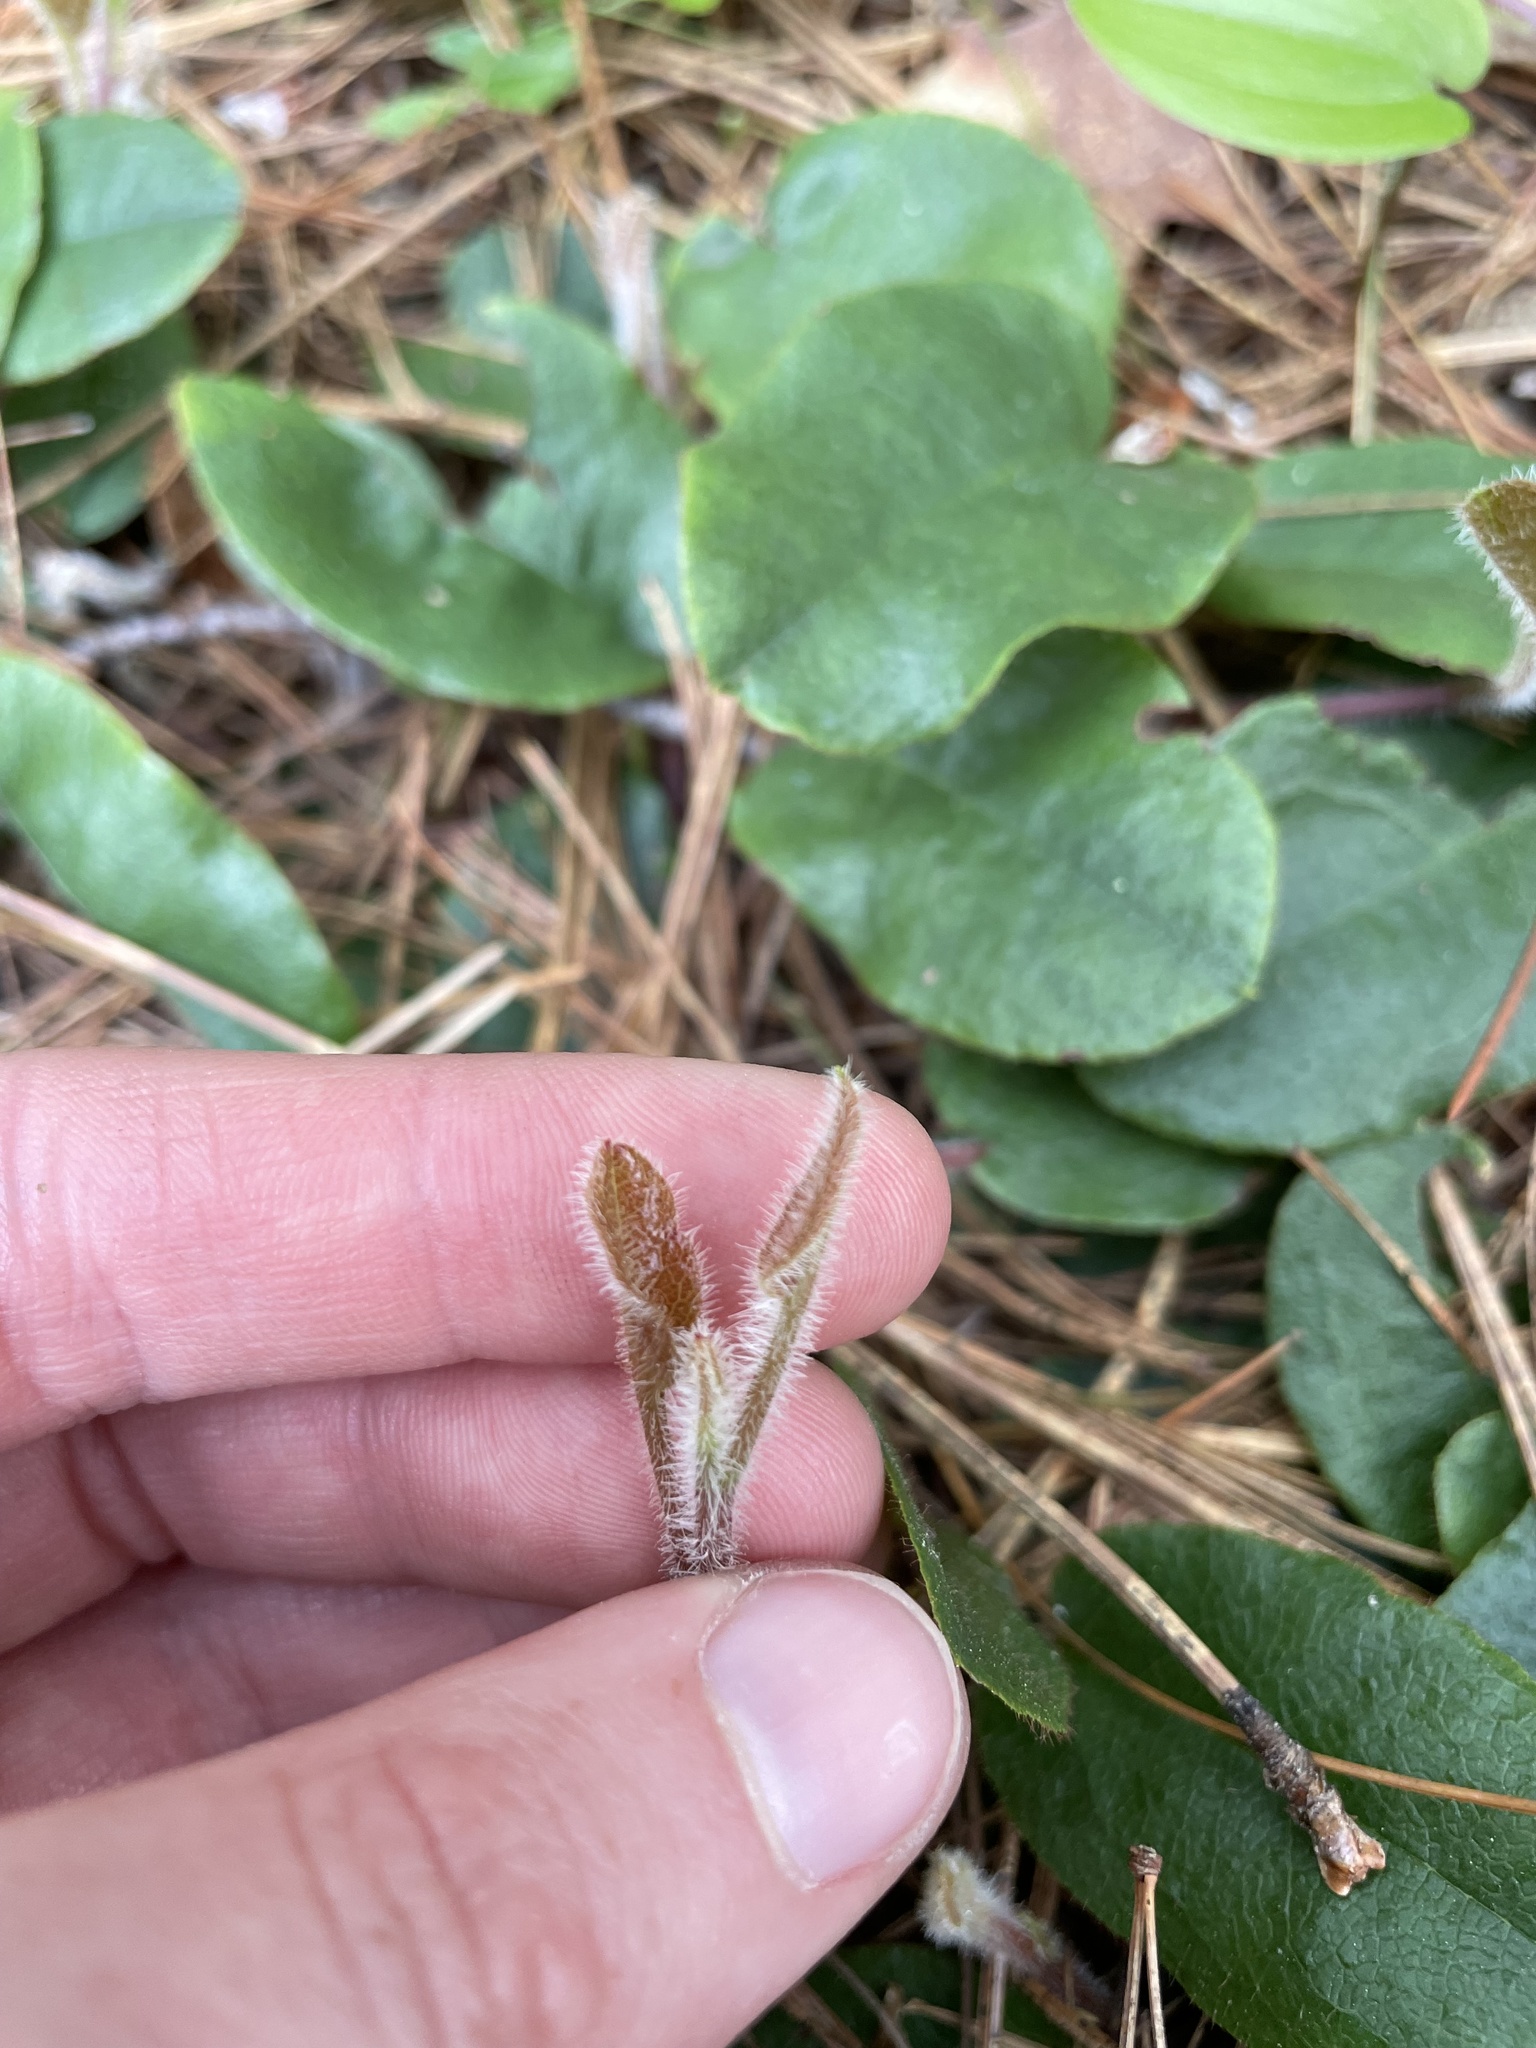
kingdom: Plantae
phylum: Tracheophyta
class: Magnoliopsida
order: Ericales
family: Ericaceae
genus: Epigaea
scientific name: Epigaea repens
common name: Gravelroot
